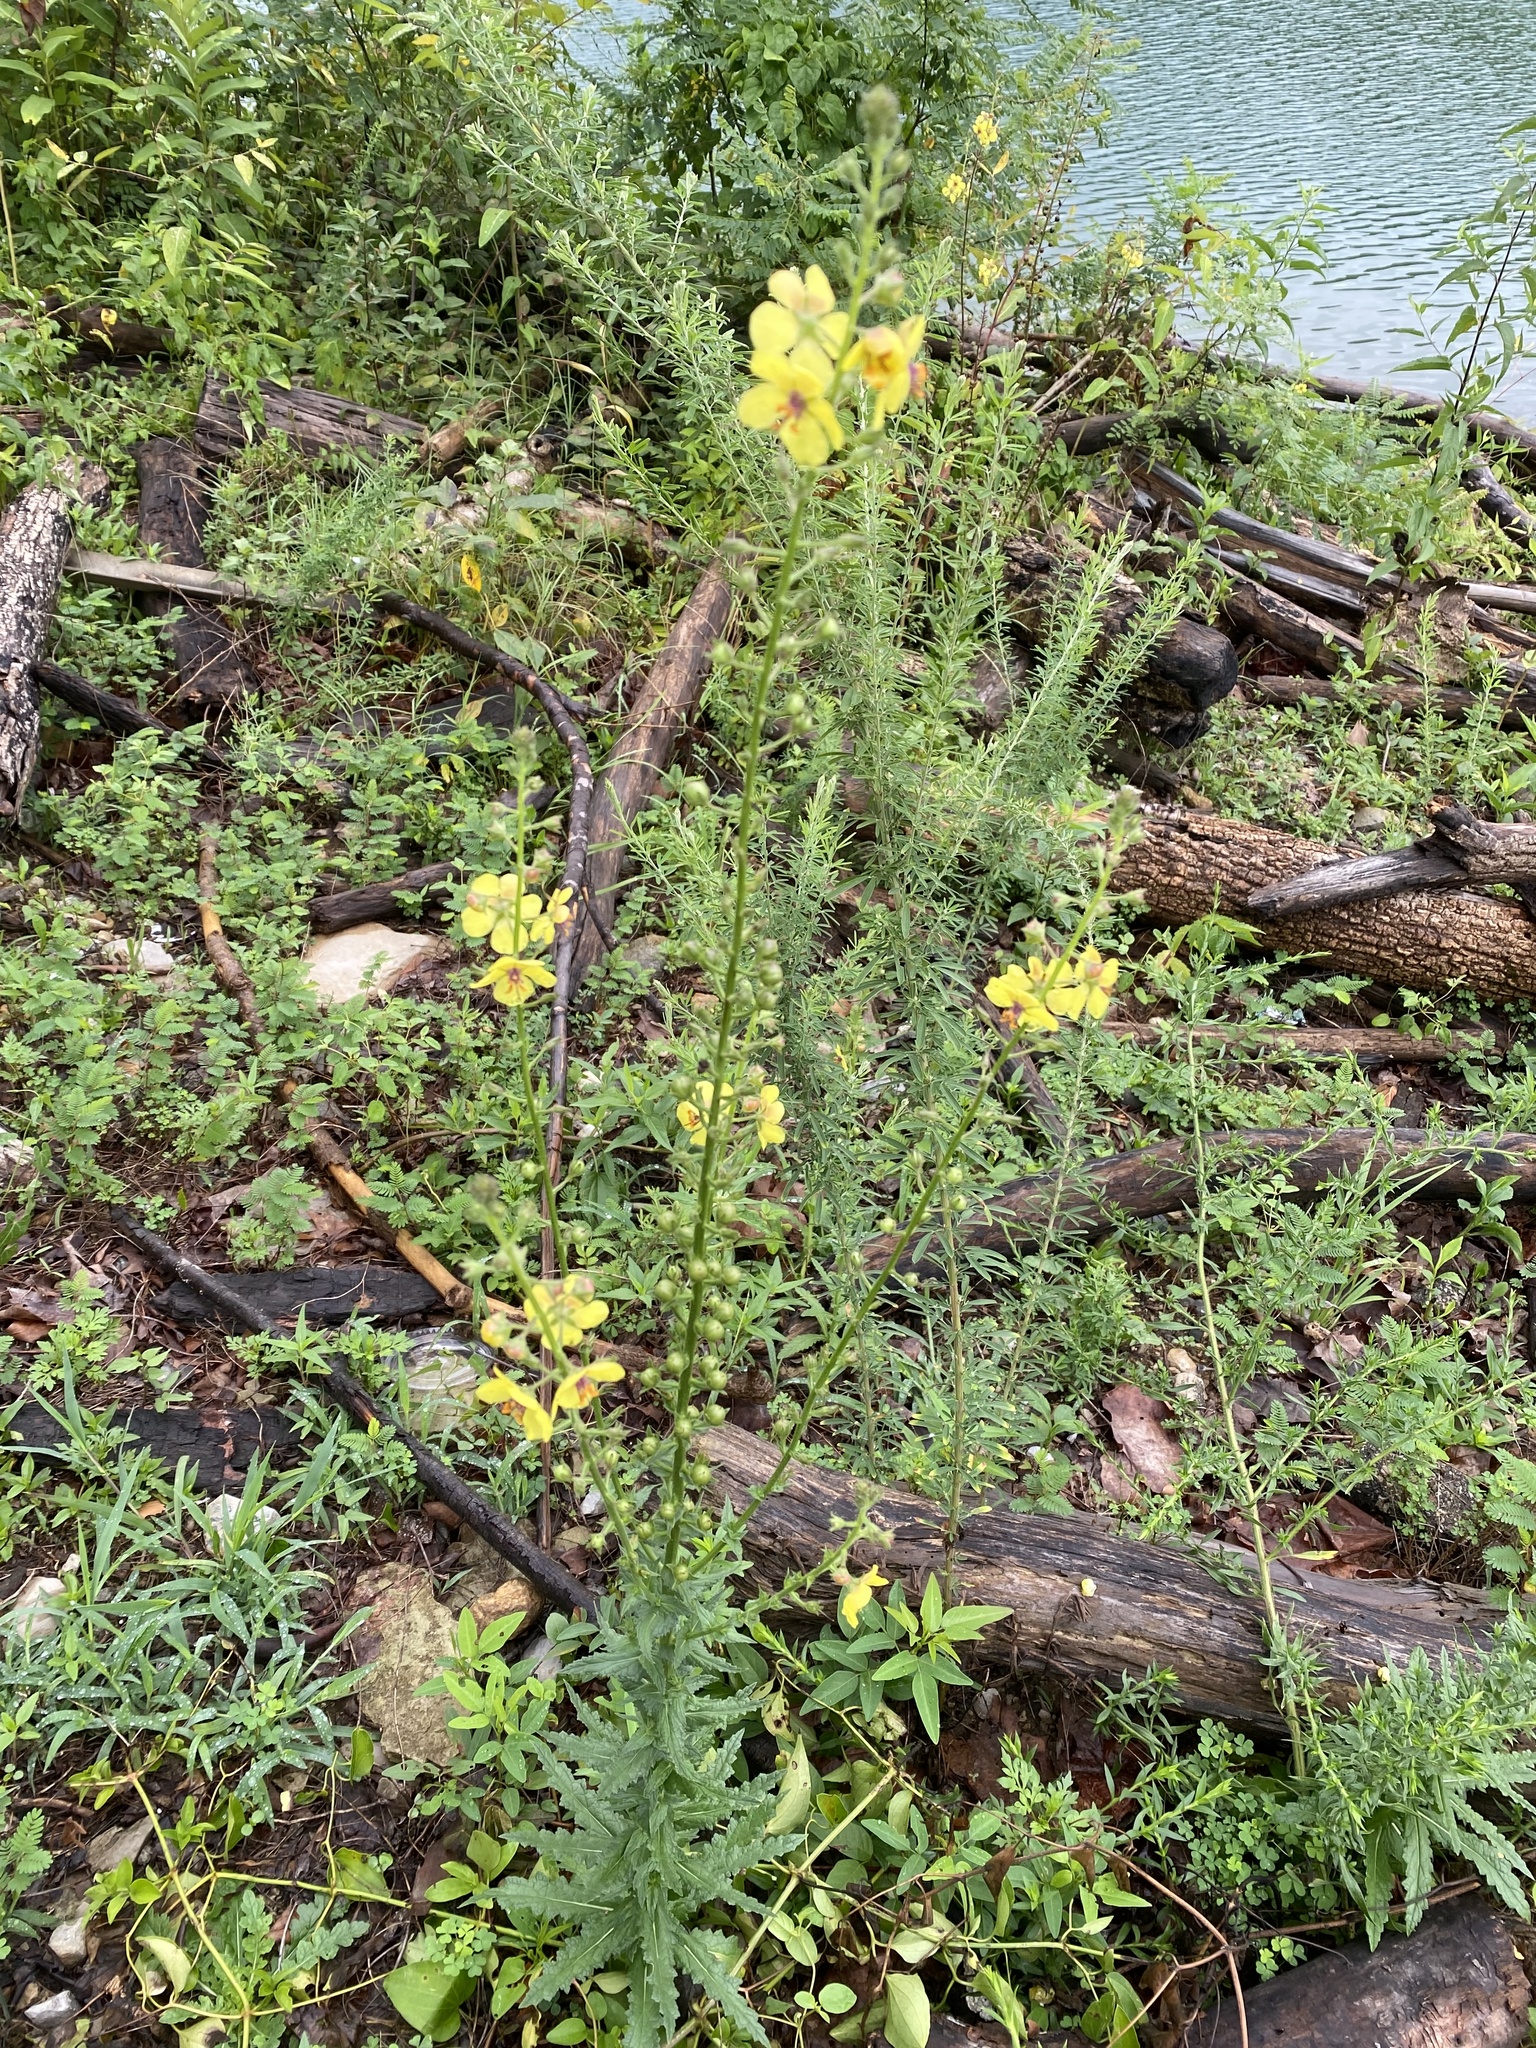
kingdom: Plantae
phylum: Tracheophyta
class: Magnoliopsida
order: Lamiales
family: Scrophulariaceae
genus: Verbascum
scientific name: Verbascum blattaria
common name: Moth mullein
